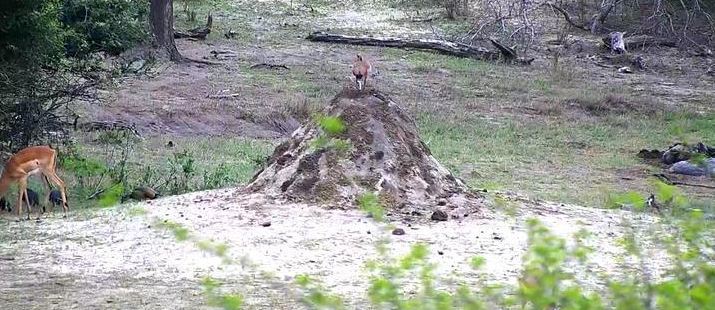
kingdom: Animalia
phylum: Chordata
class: Aves
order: Anseriformes
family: Anatidae
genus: Alopochen
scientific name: Alopochen aegyptiaca
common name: Egyptian goose
